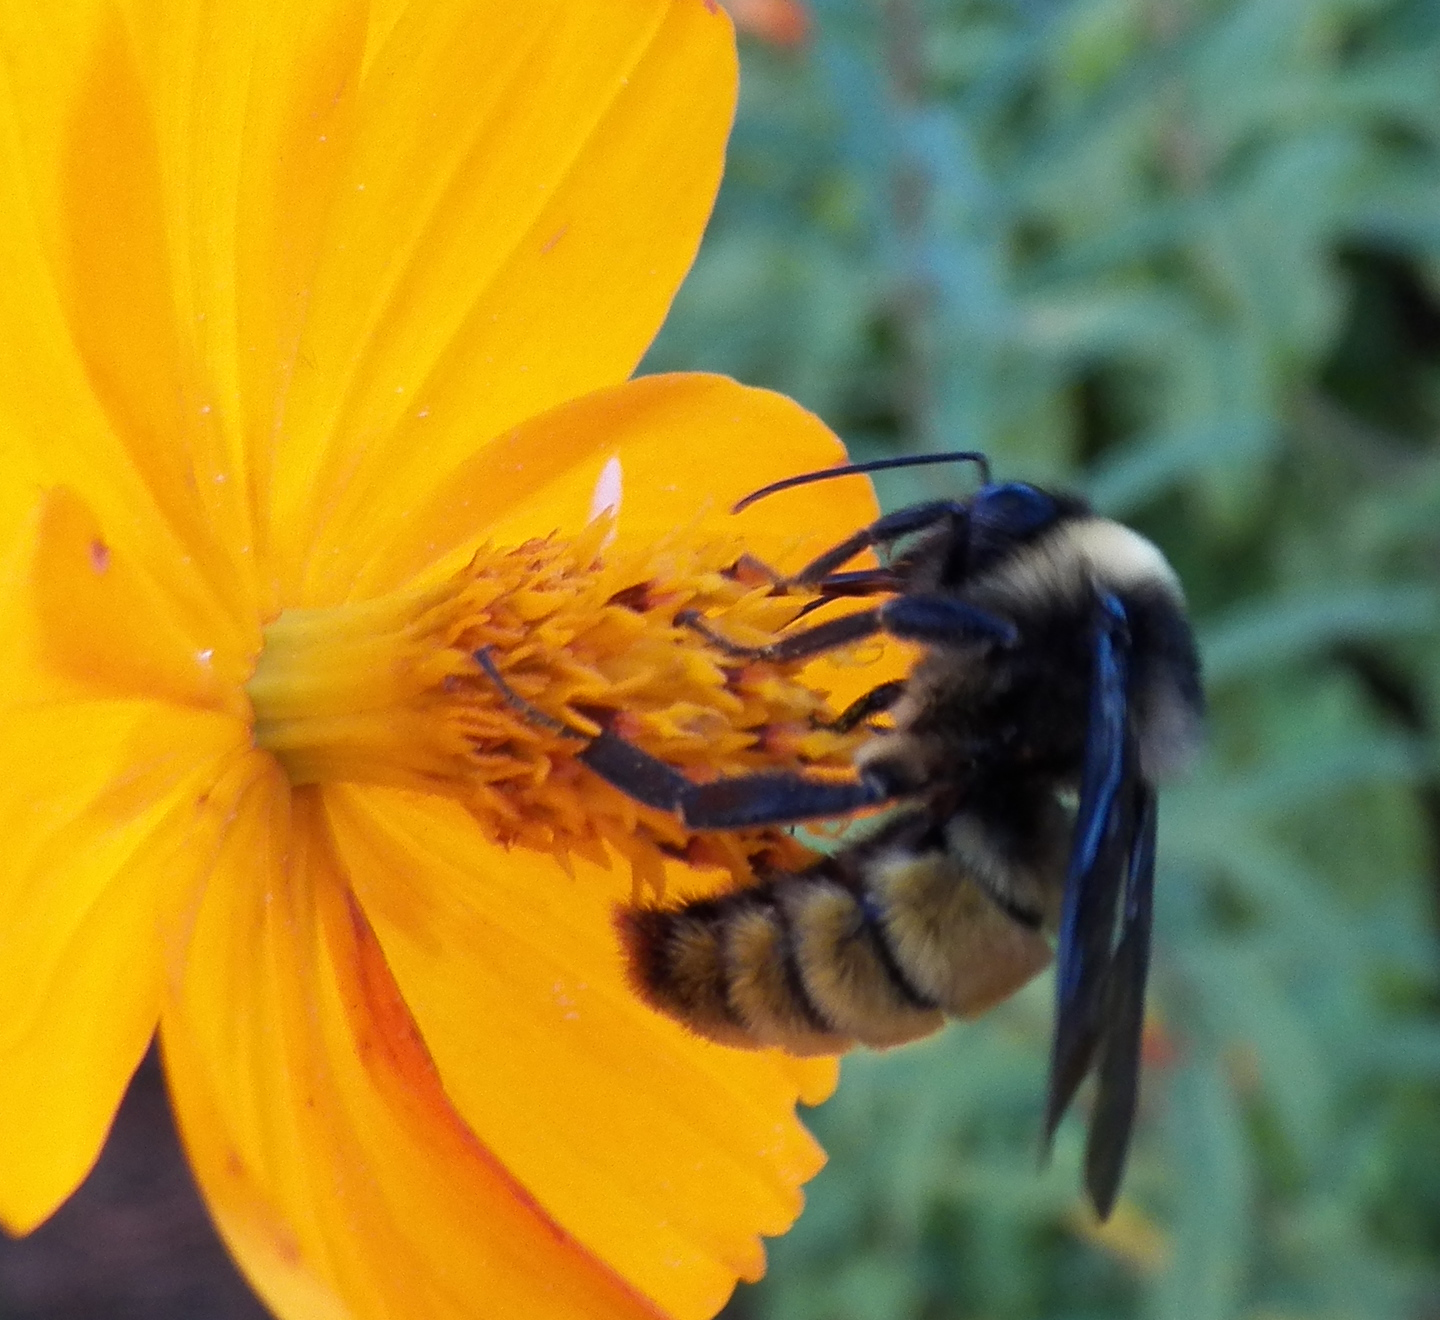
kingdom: Animalia
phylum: Arthropoda
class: Insecta
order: Hymenoptera
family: Apidae
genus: Bombus
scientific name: Bombus pensylvanicus
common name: Bumble bee
